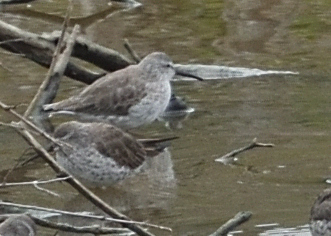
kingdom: Animalia
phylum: Chordata
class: Aves
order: Charadriiformes
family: Scolopacidae
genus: Calidris
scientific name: Calidris himantopus
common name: Stilt sandpiper
